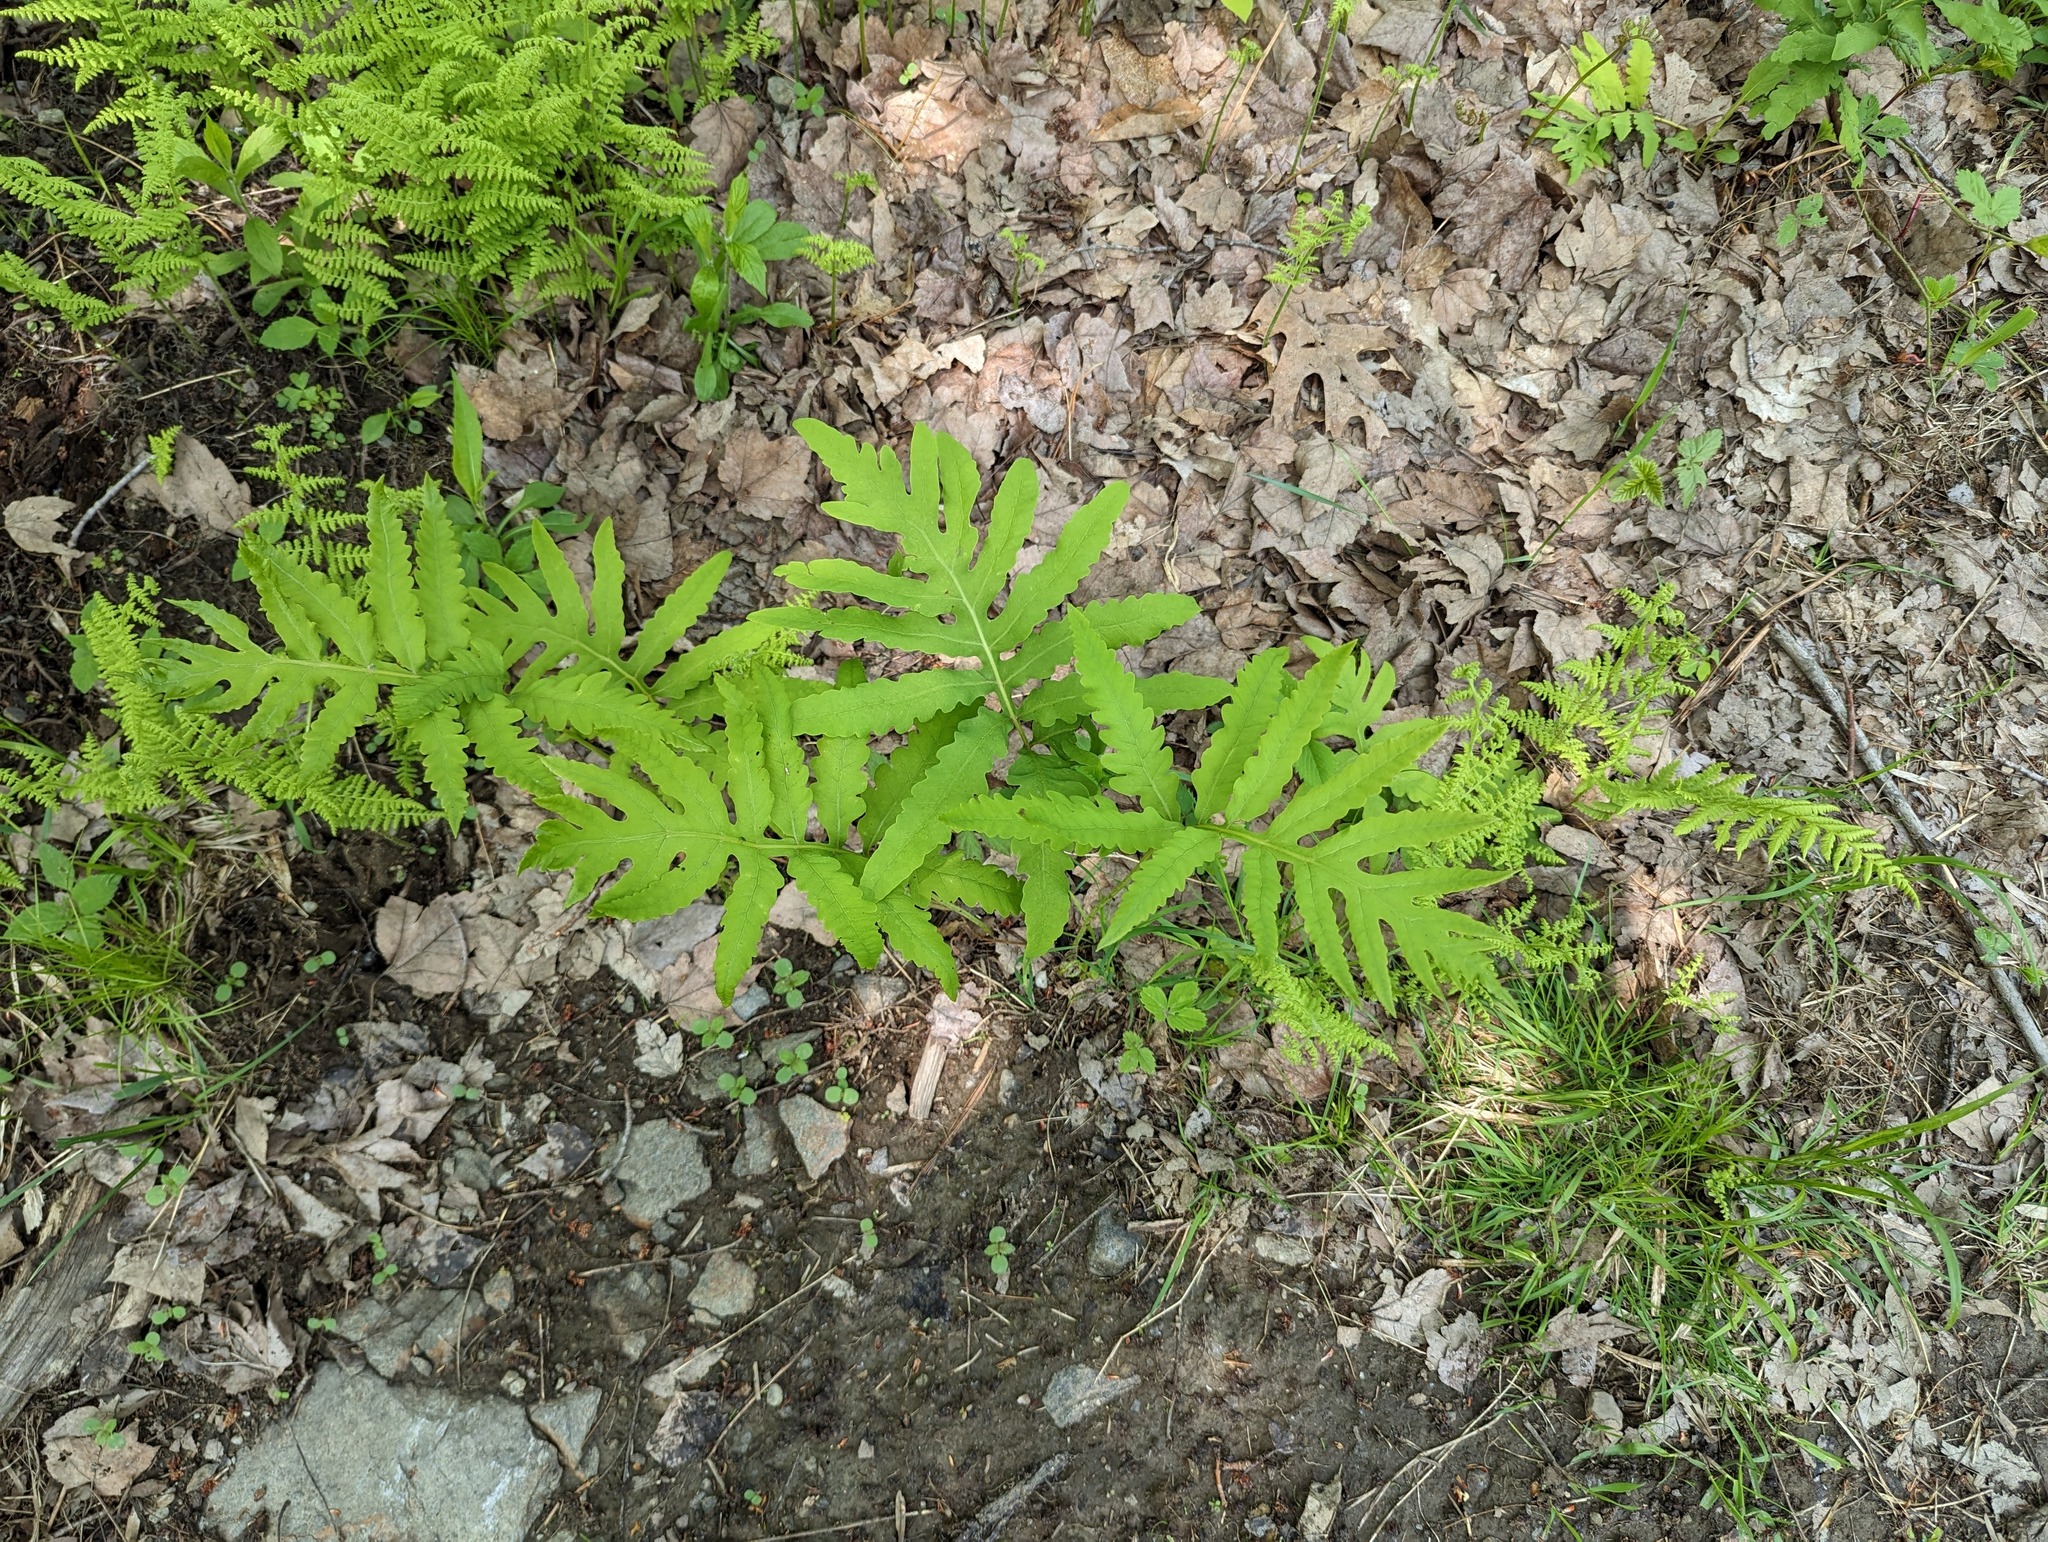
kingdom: Plantae
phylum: Tracheophyta
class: Polypodiopsida
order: Polypodiales
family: Onocleaceae
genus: Onoclea
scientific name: Onoclea sensibilis
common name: Sensitive fern
